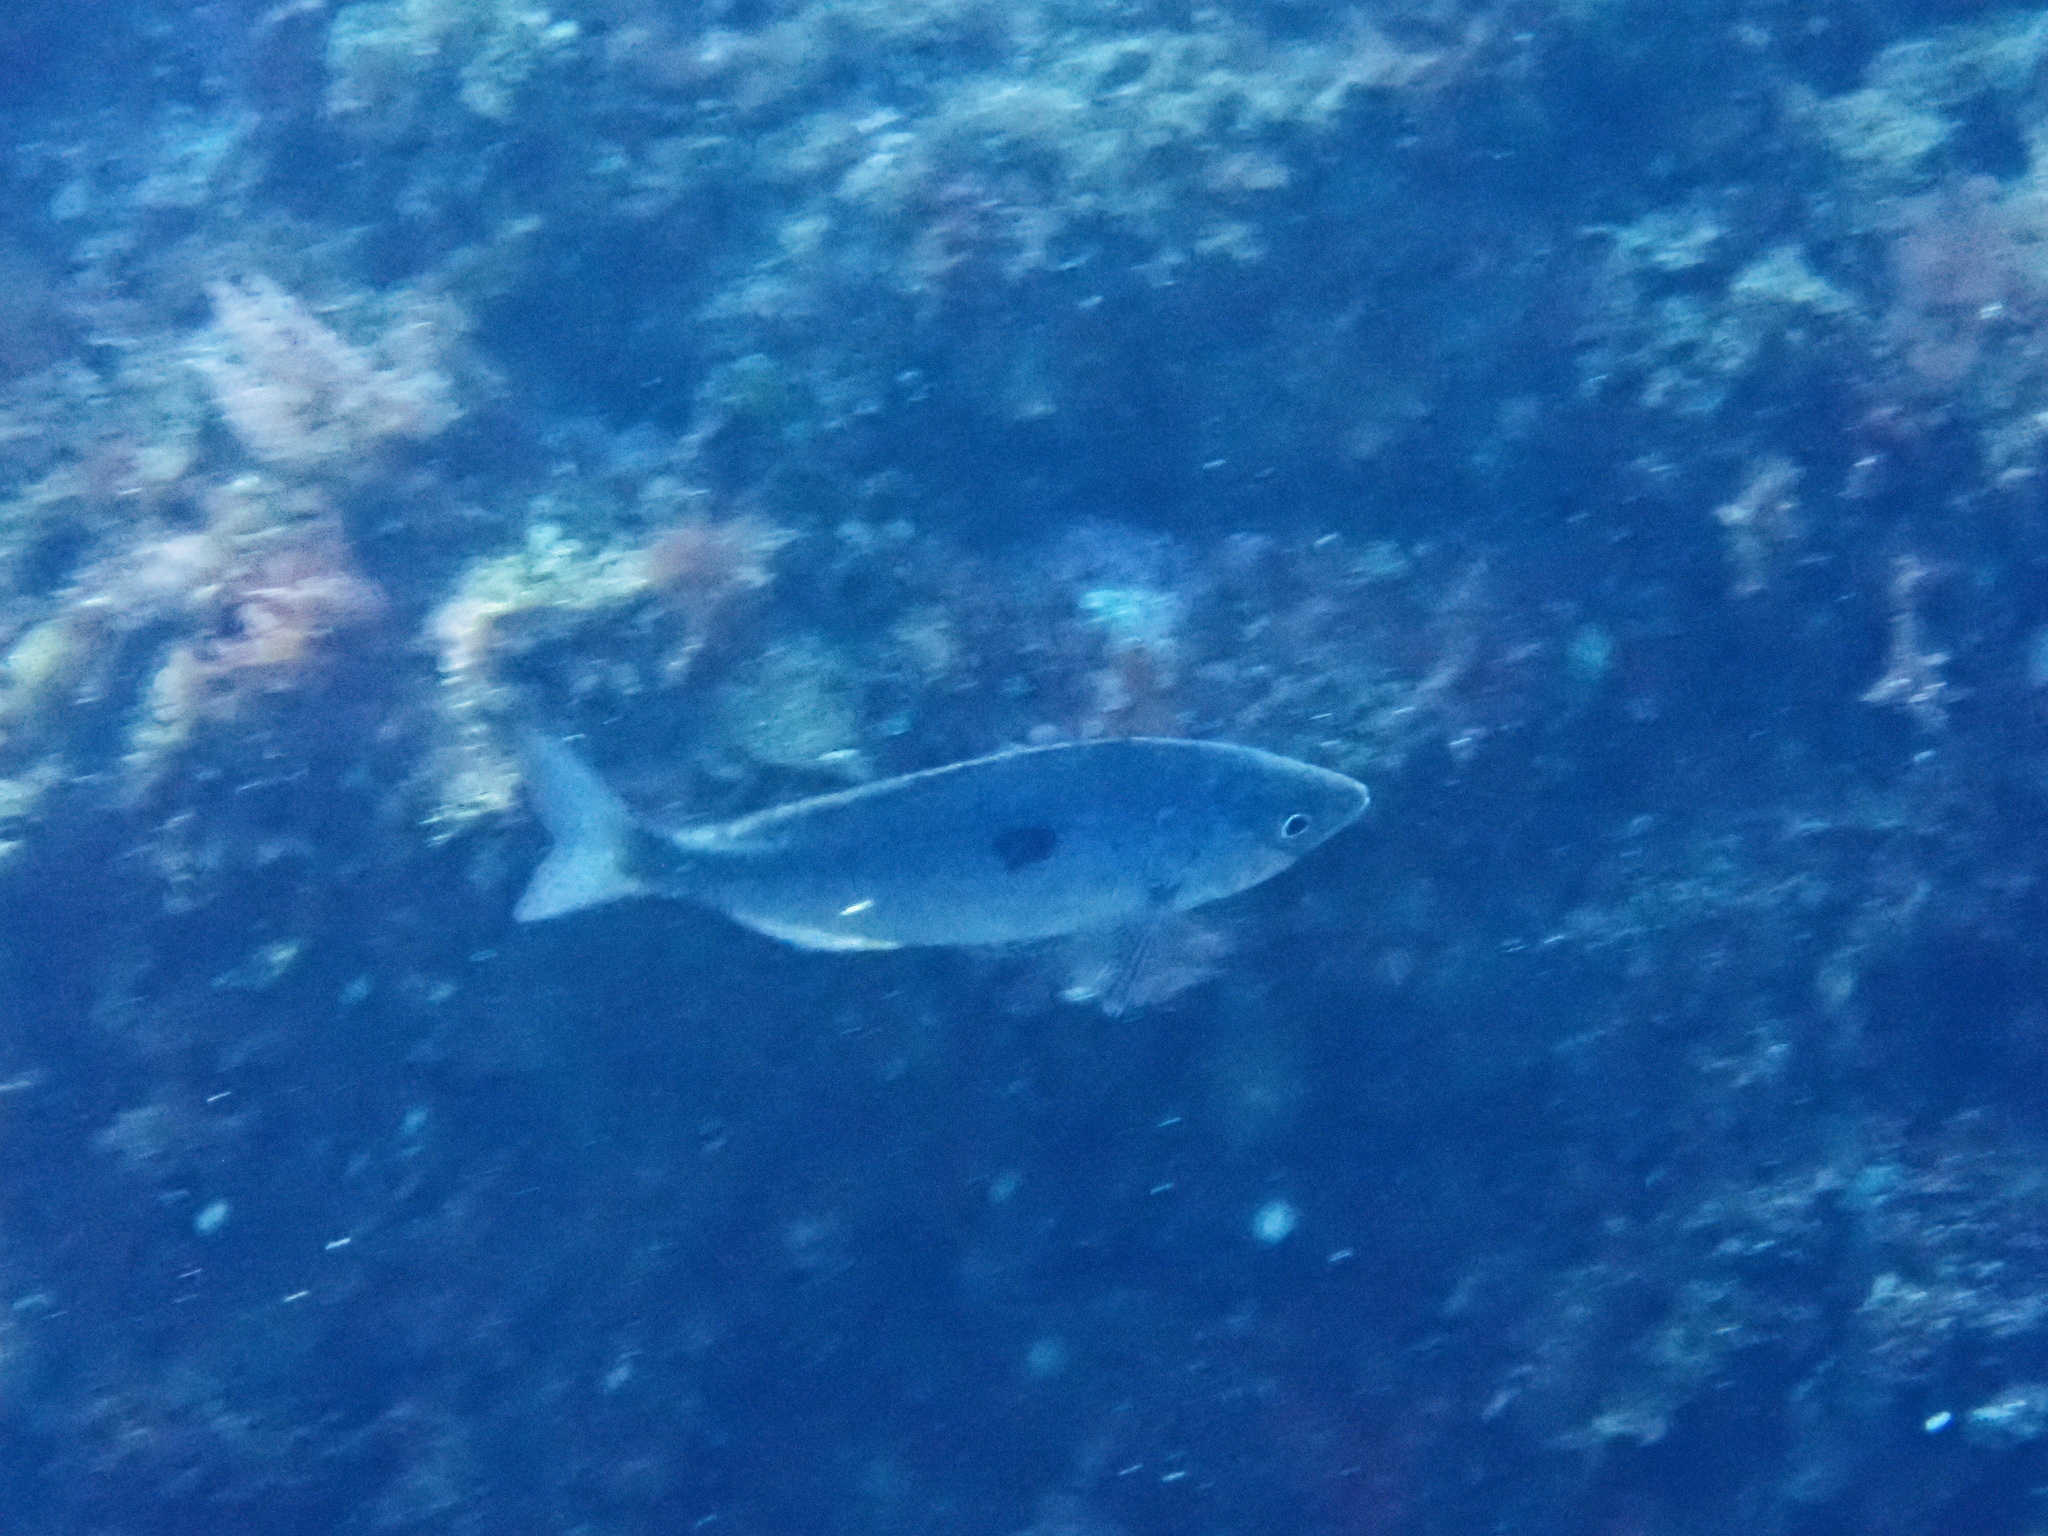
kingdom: Animalia
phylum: Chordata
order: Perciformes
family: Sparidae
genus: Spicara
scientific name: Spicara maena
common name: Blotched picarel
